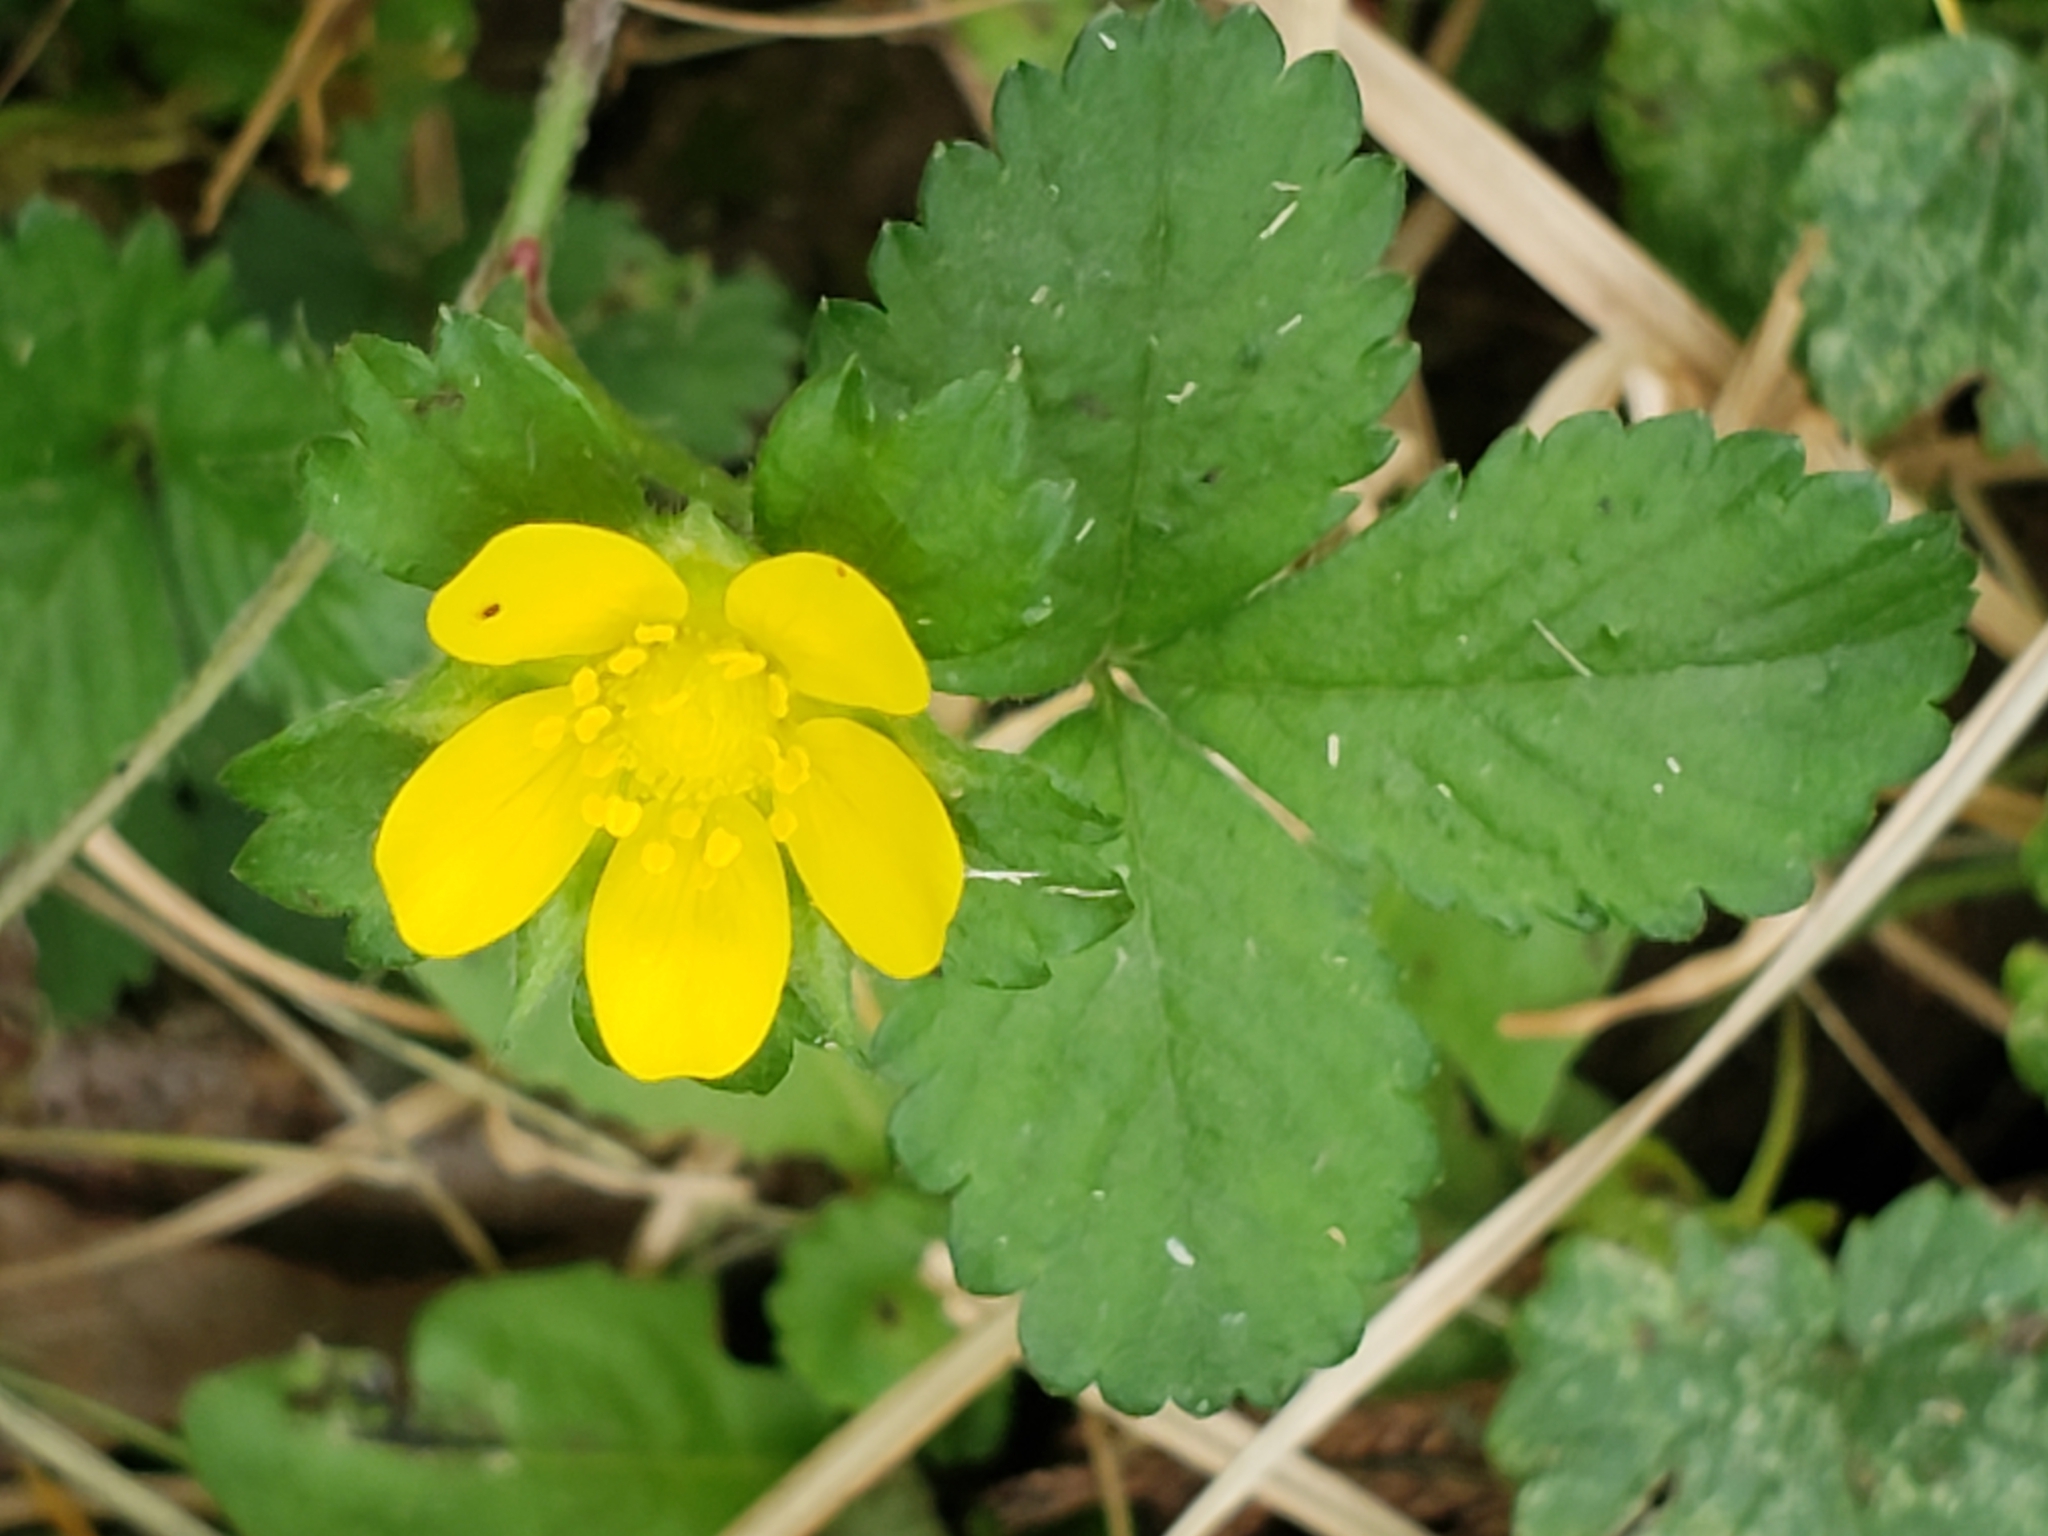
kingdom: Plantae
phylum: Tracheophyta
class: Magnoliopsida
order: Rosales
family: Rosaceae
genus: Potentilla
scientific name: Potentilla indica
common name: Yellow-flowered strawberry
